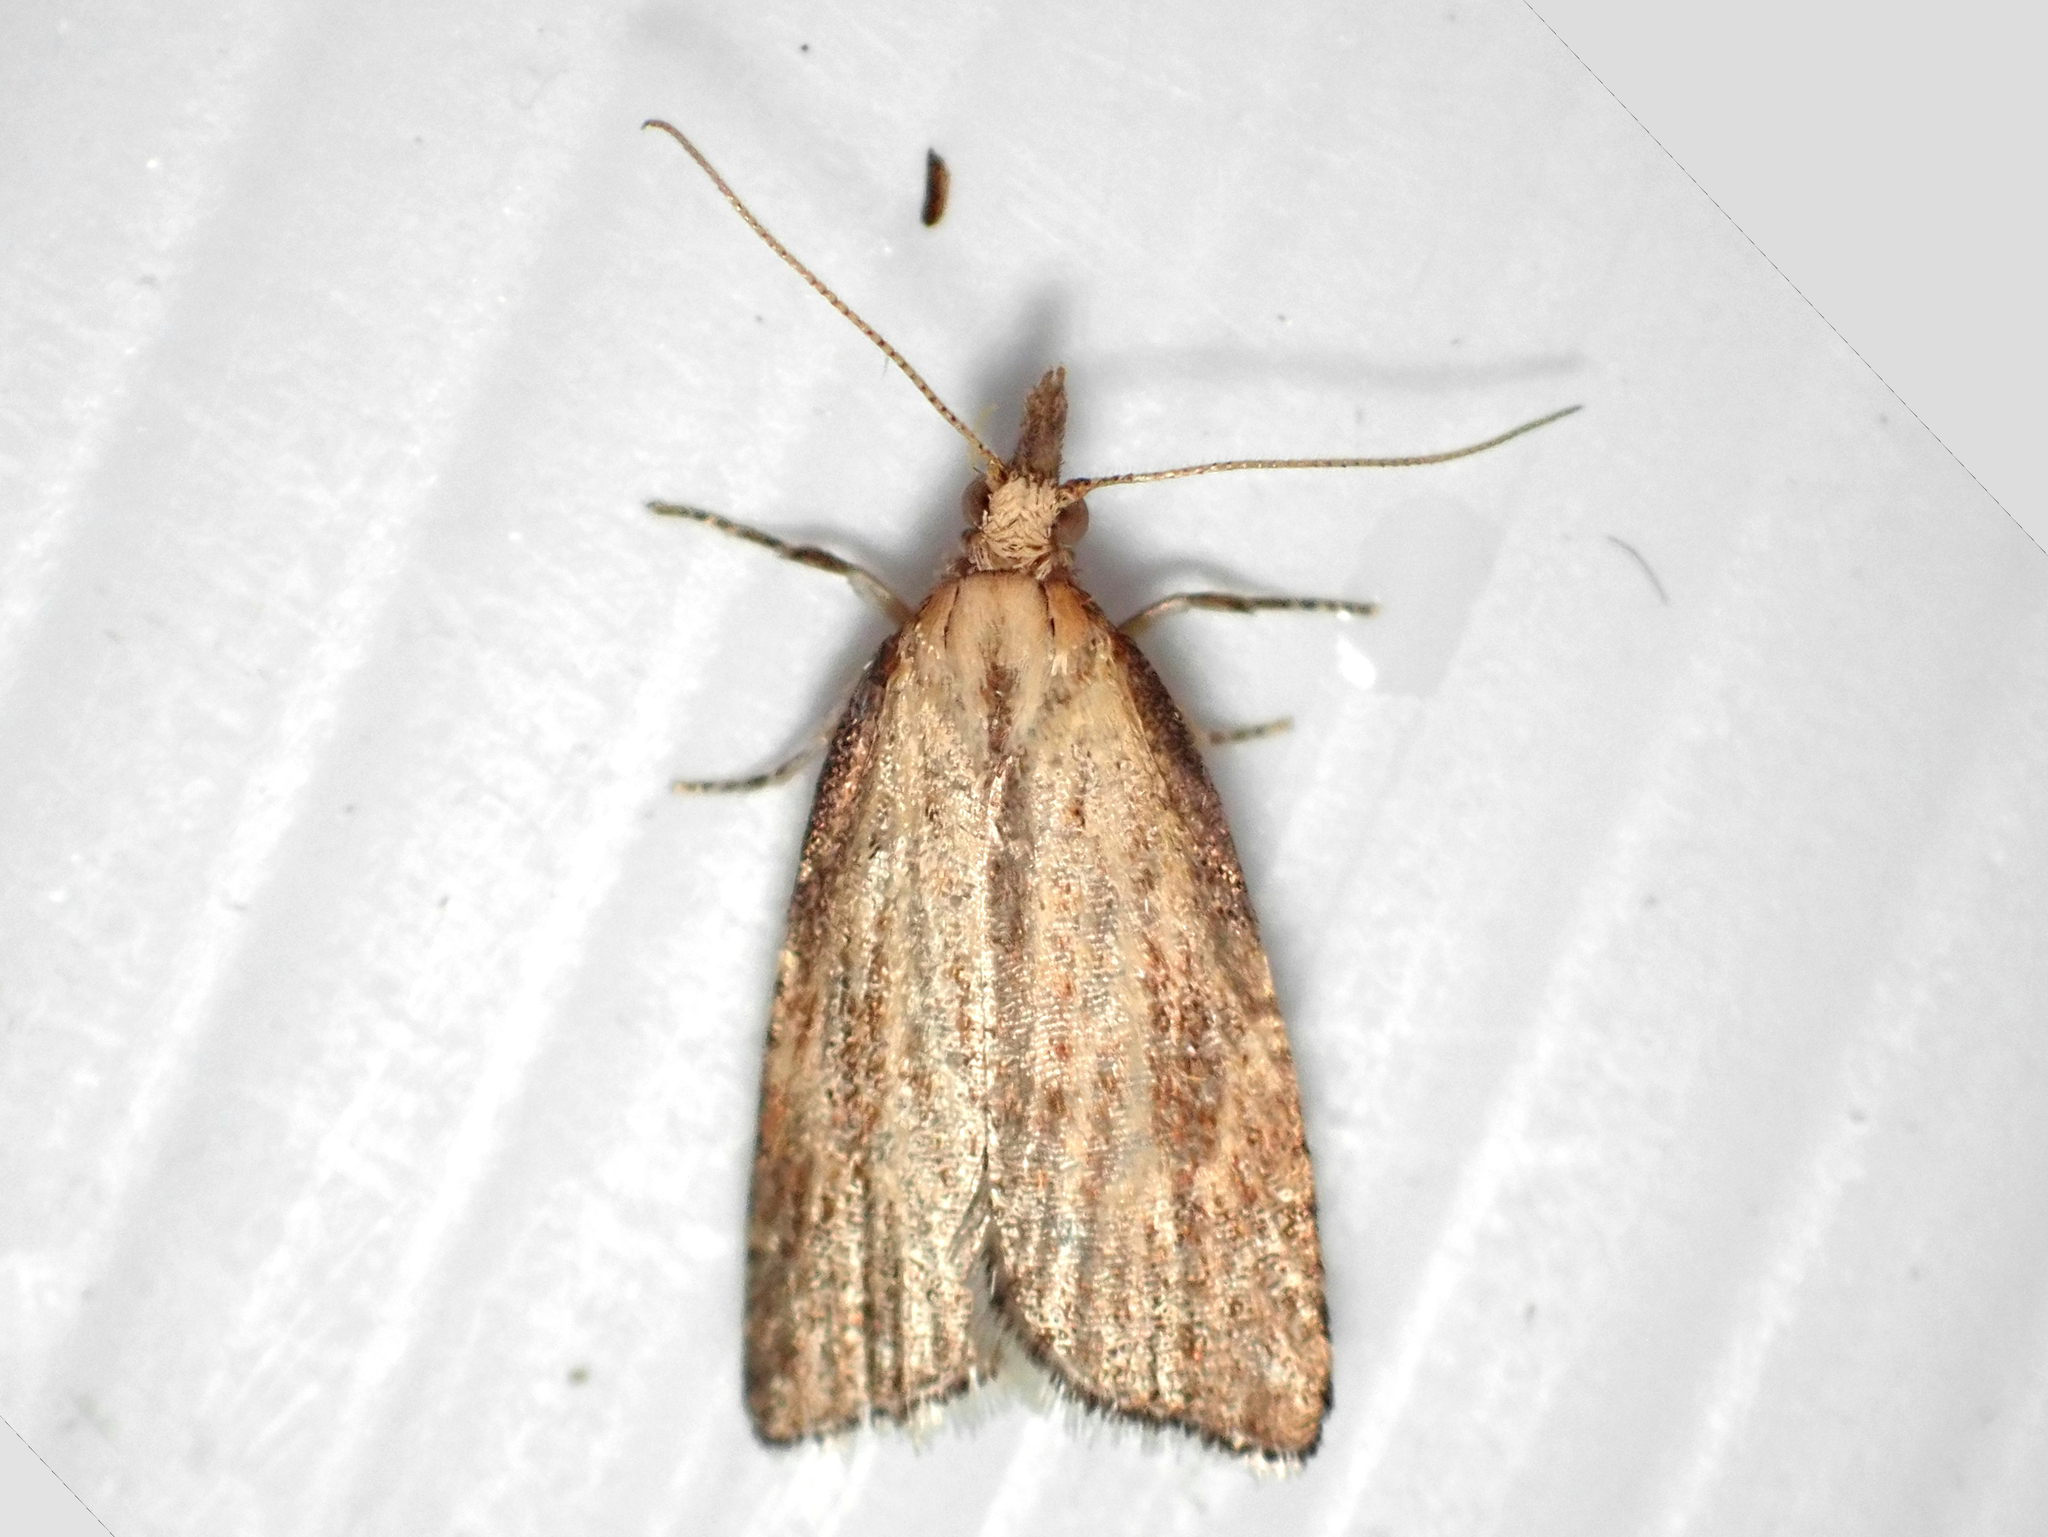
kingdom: Animalia
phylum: Arthropoda
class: Insecta
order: Lepidoptera
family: Tortricidae
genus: Catamacta
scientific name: Catamacta lotinana
